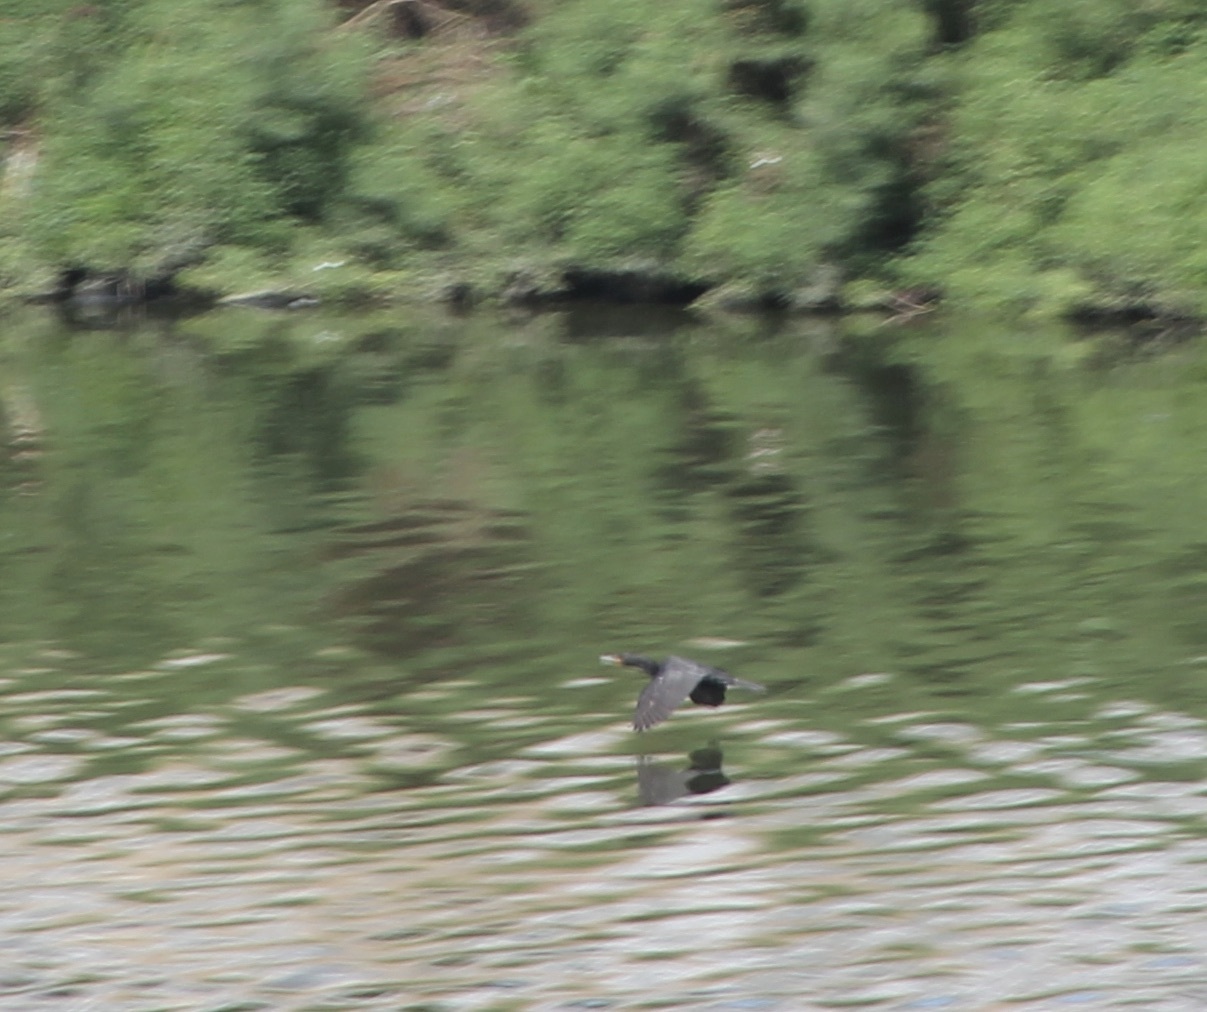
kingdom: Animalia
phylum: Chordata
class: Aves
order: Suliformes
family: Phalacrocoracidae
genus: Phalacrocorax
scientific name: Phalacrocorax auritus
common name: Double-crested cormorant
